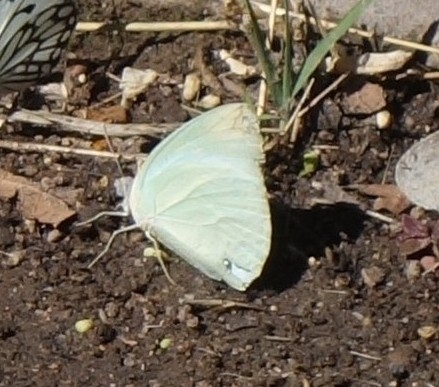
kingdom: Animalia
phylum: Arthropoda
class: Insecta
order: Lepidoptera
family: Pieridae
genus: Catopsilia
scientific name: Catopsilia florella
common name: African migrant
